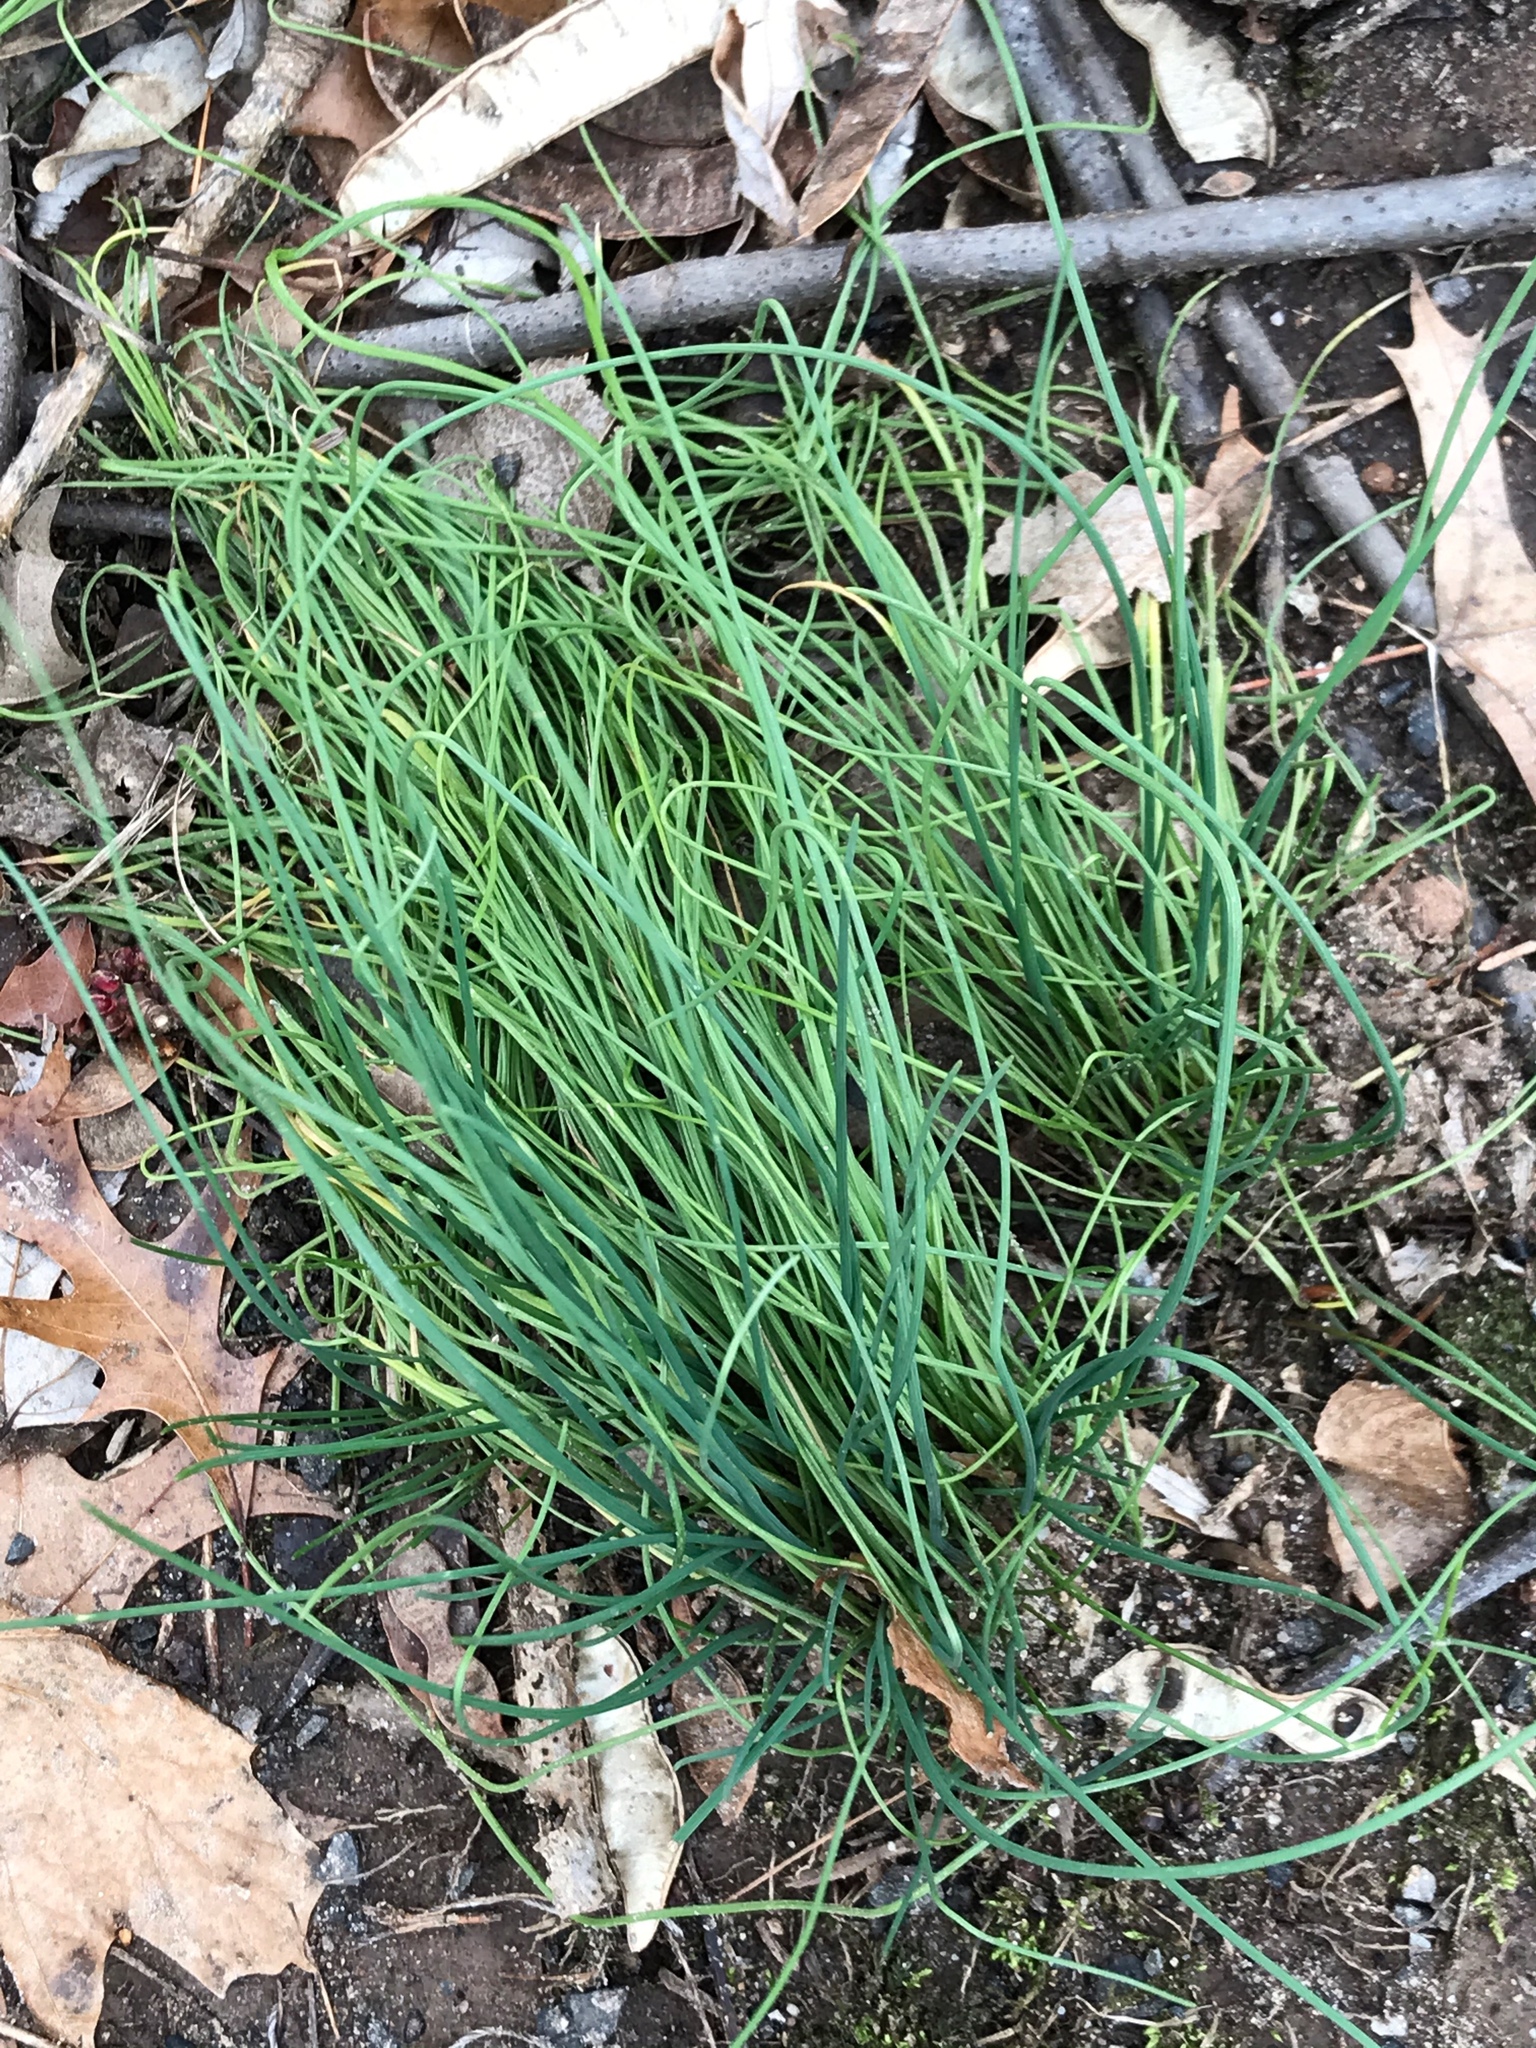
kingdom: Plantae
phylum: Tracheophyta
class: Liliopsida
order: Asparagales
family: Amaryllidaceae
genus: Allium
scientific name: Allium vineale
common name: Crow garlic
